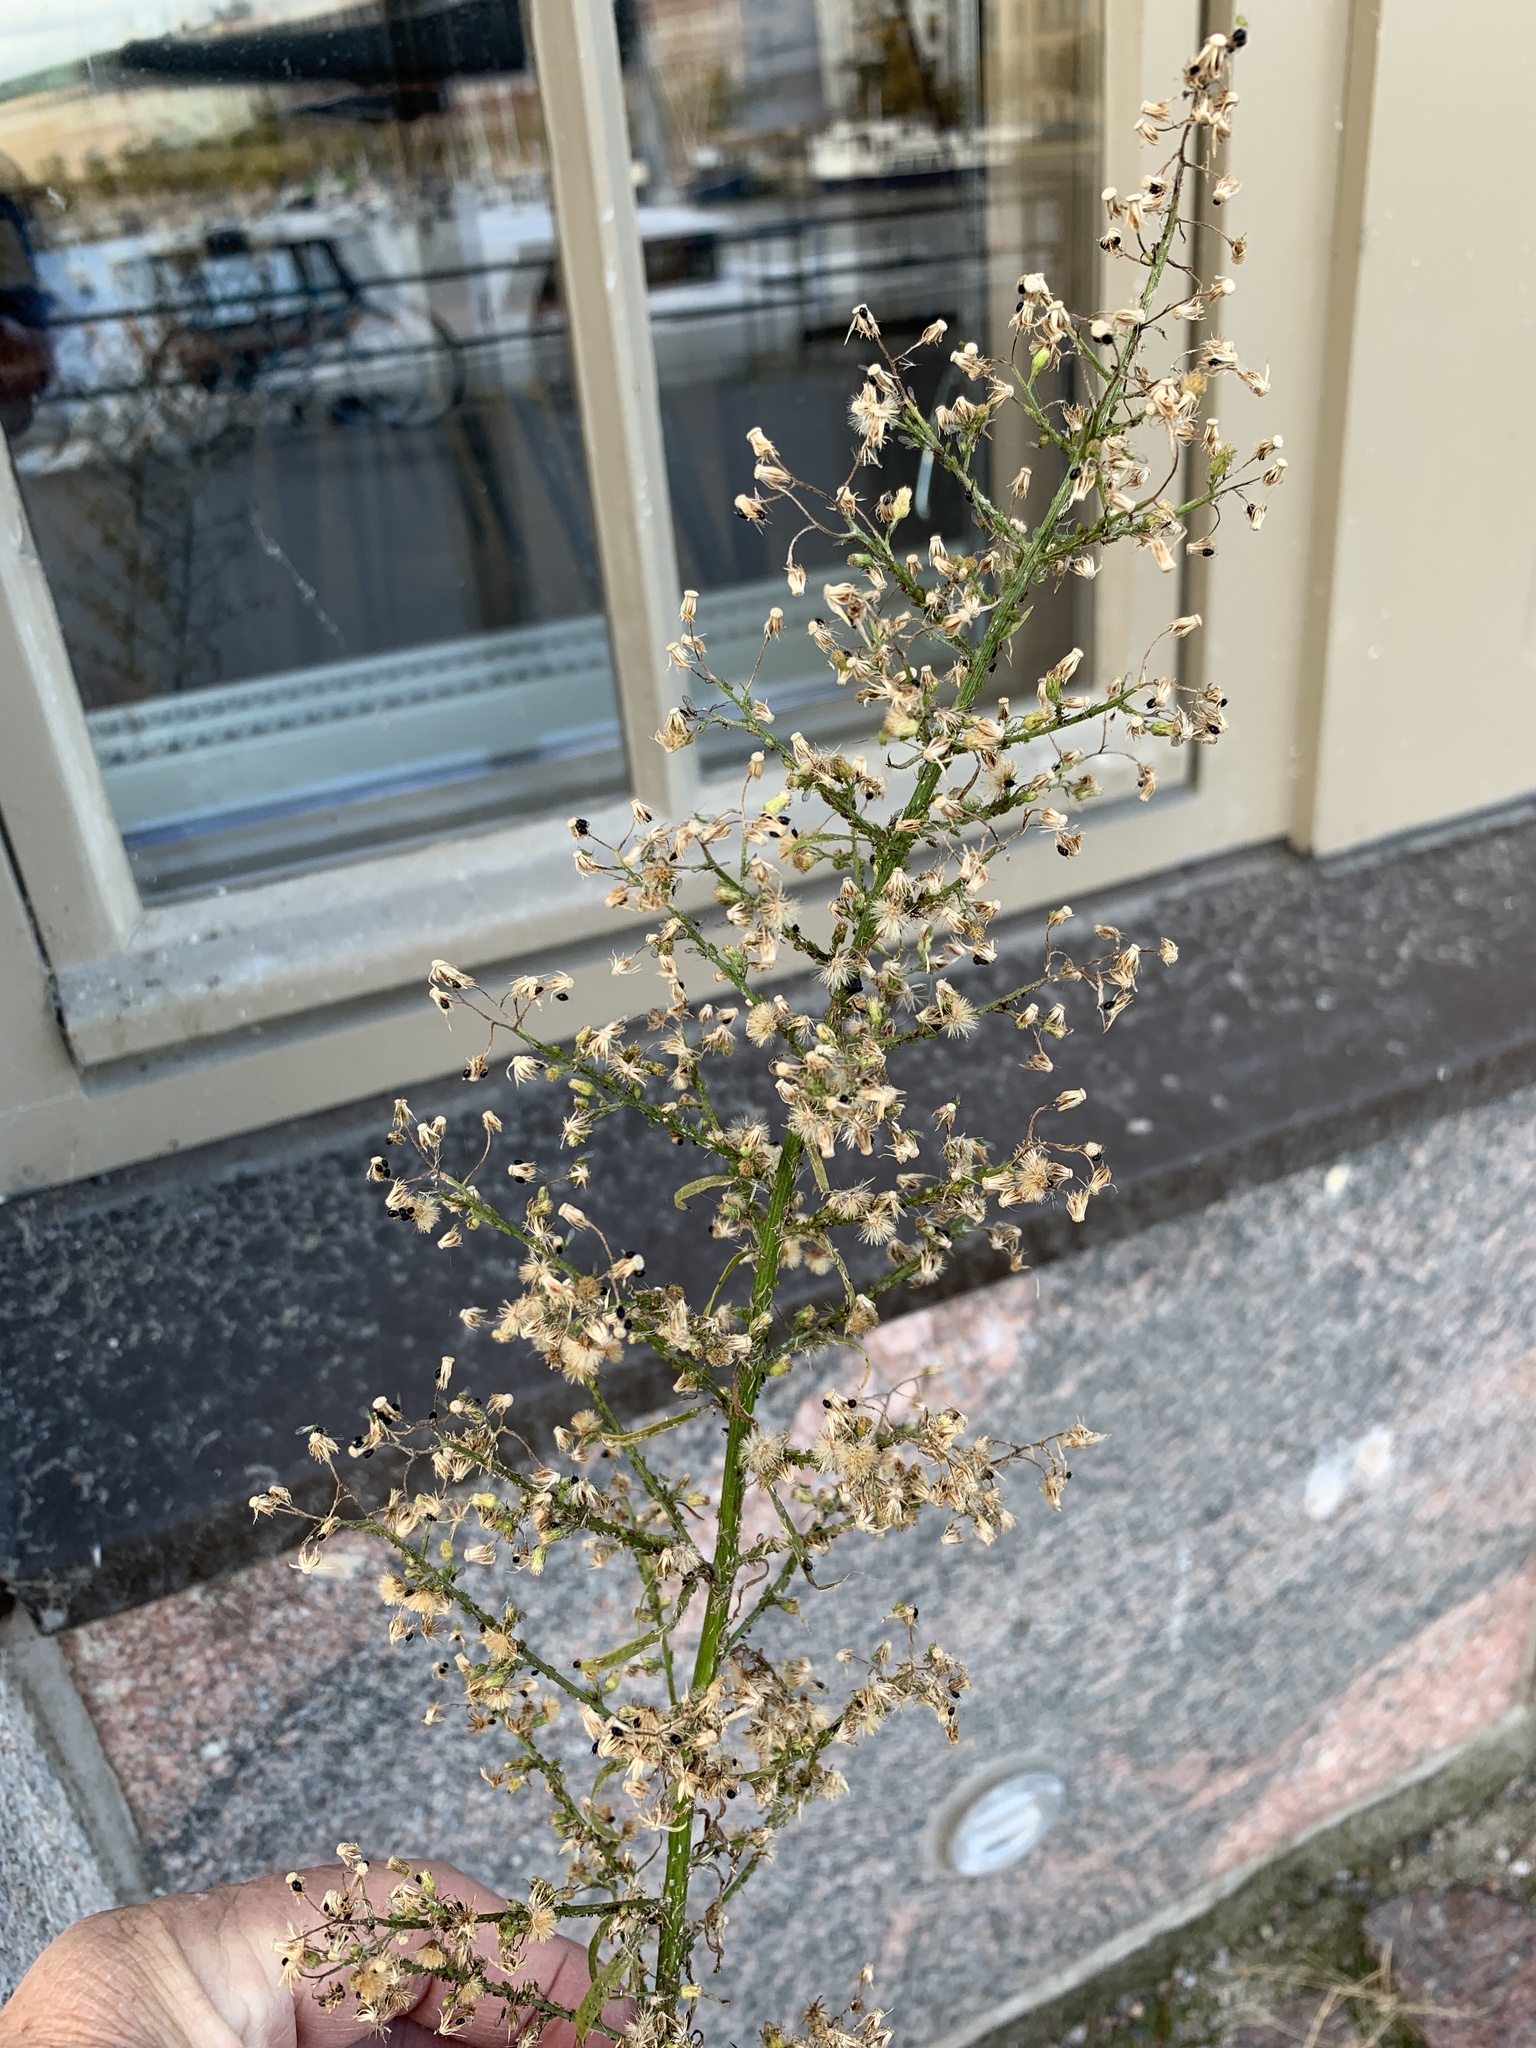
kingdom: Plantae
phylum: Tracheophyta
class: Magnoliopsida
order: Asterales
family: Asteraceae
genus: Erigeron
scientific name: Erigeron canadensis
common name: Canadian fleabane
